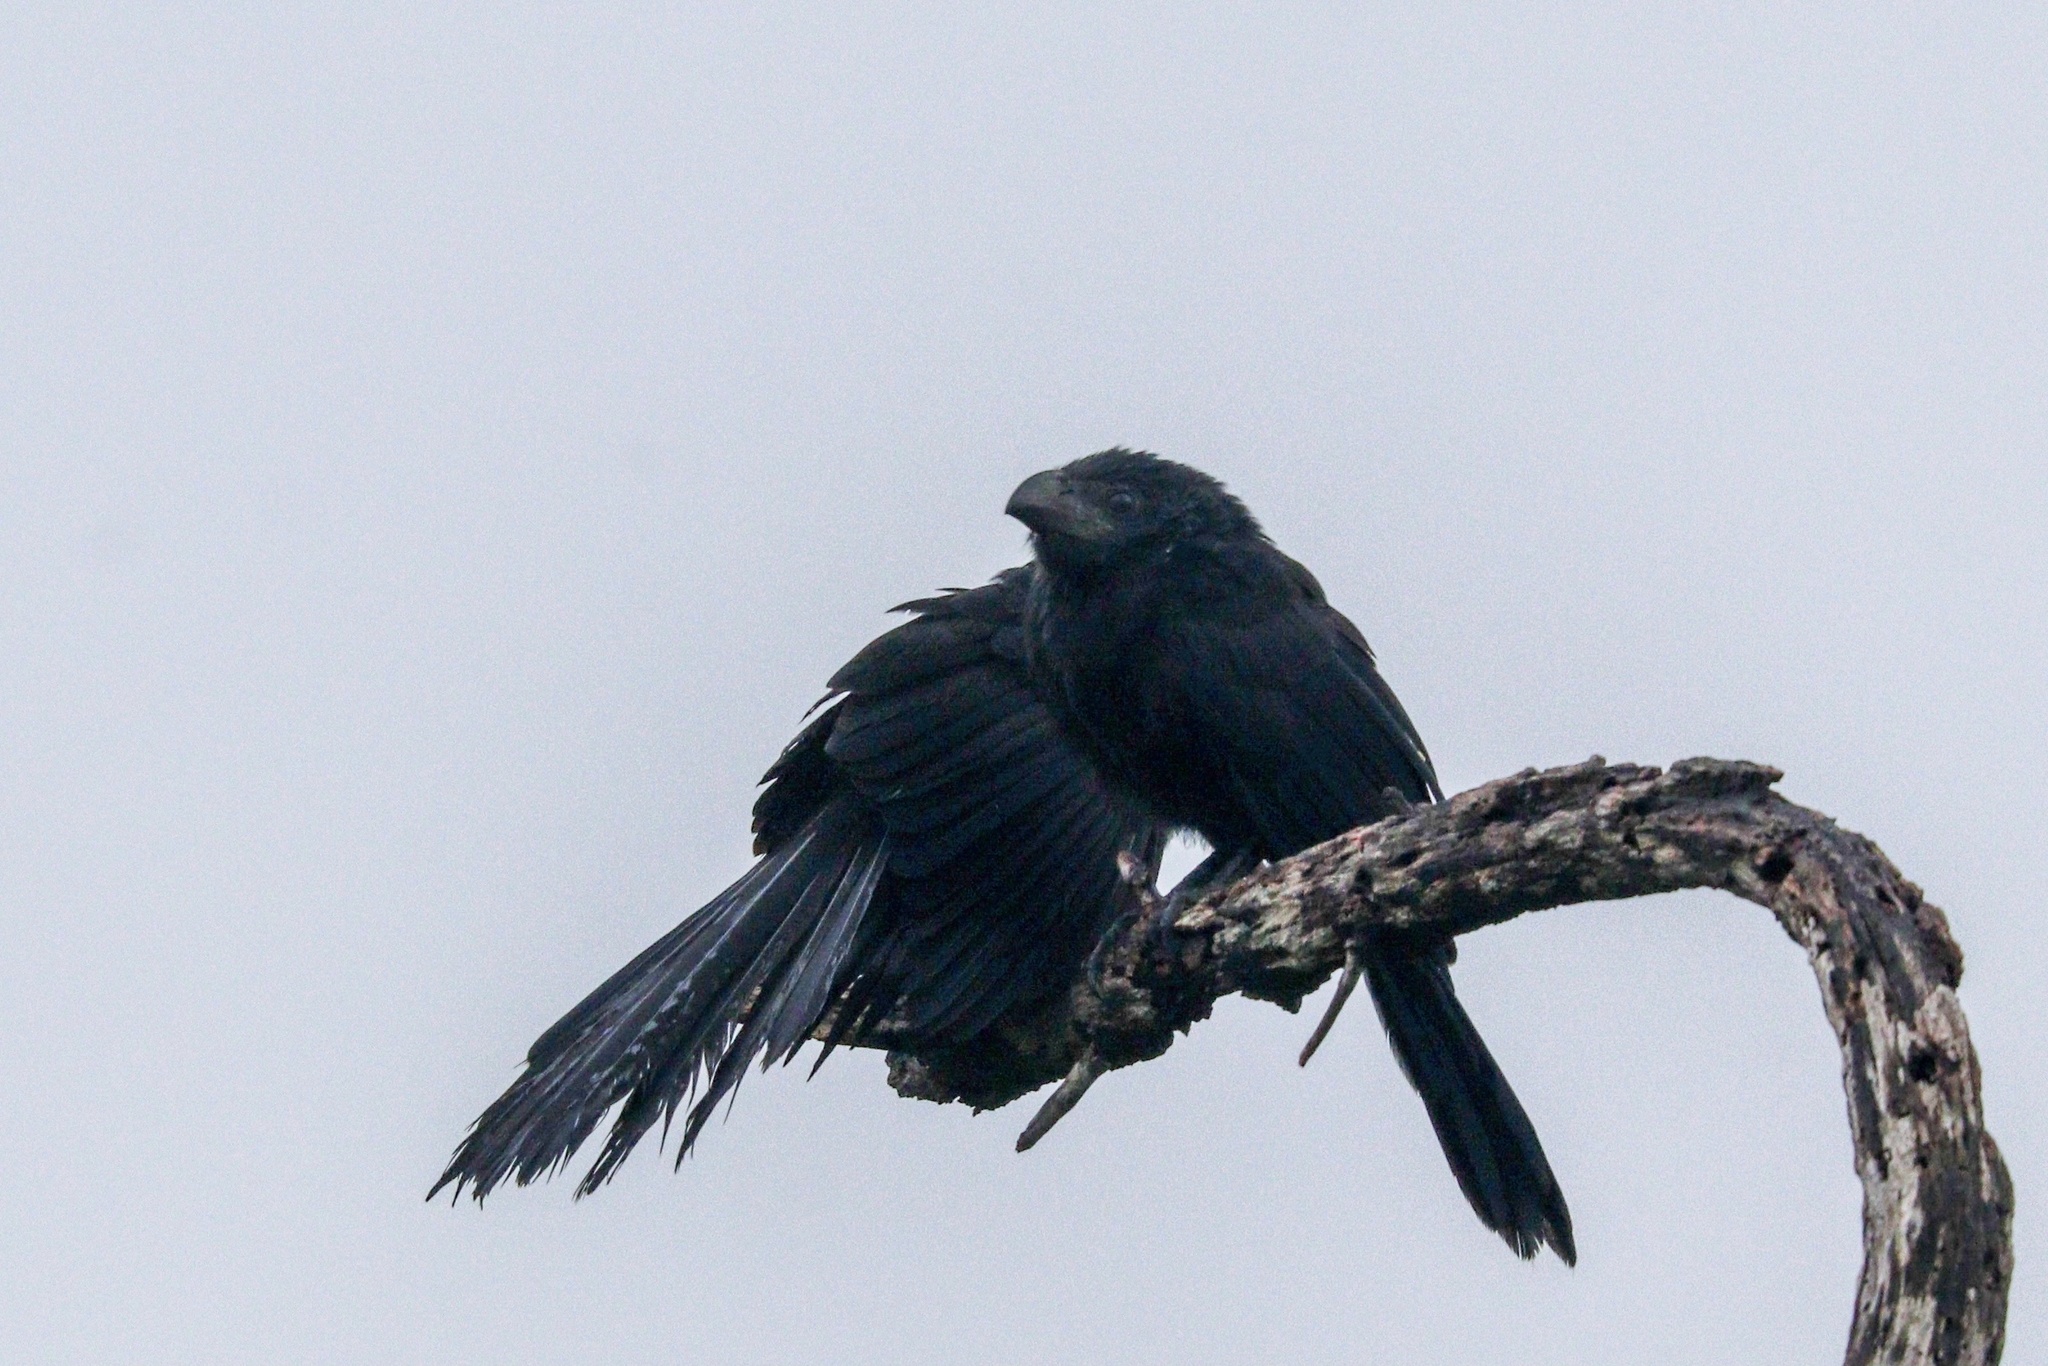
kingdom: Animalia
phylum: Chordata
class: Aves
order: Cuculiformes
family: Cuculidae
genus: Crotophaga
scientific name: Crotophaga sulcirostris
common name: Groove-billed ani
